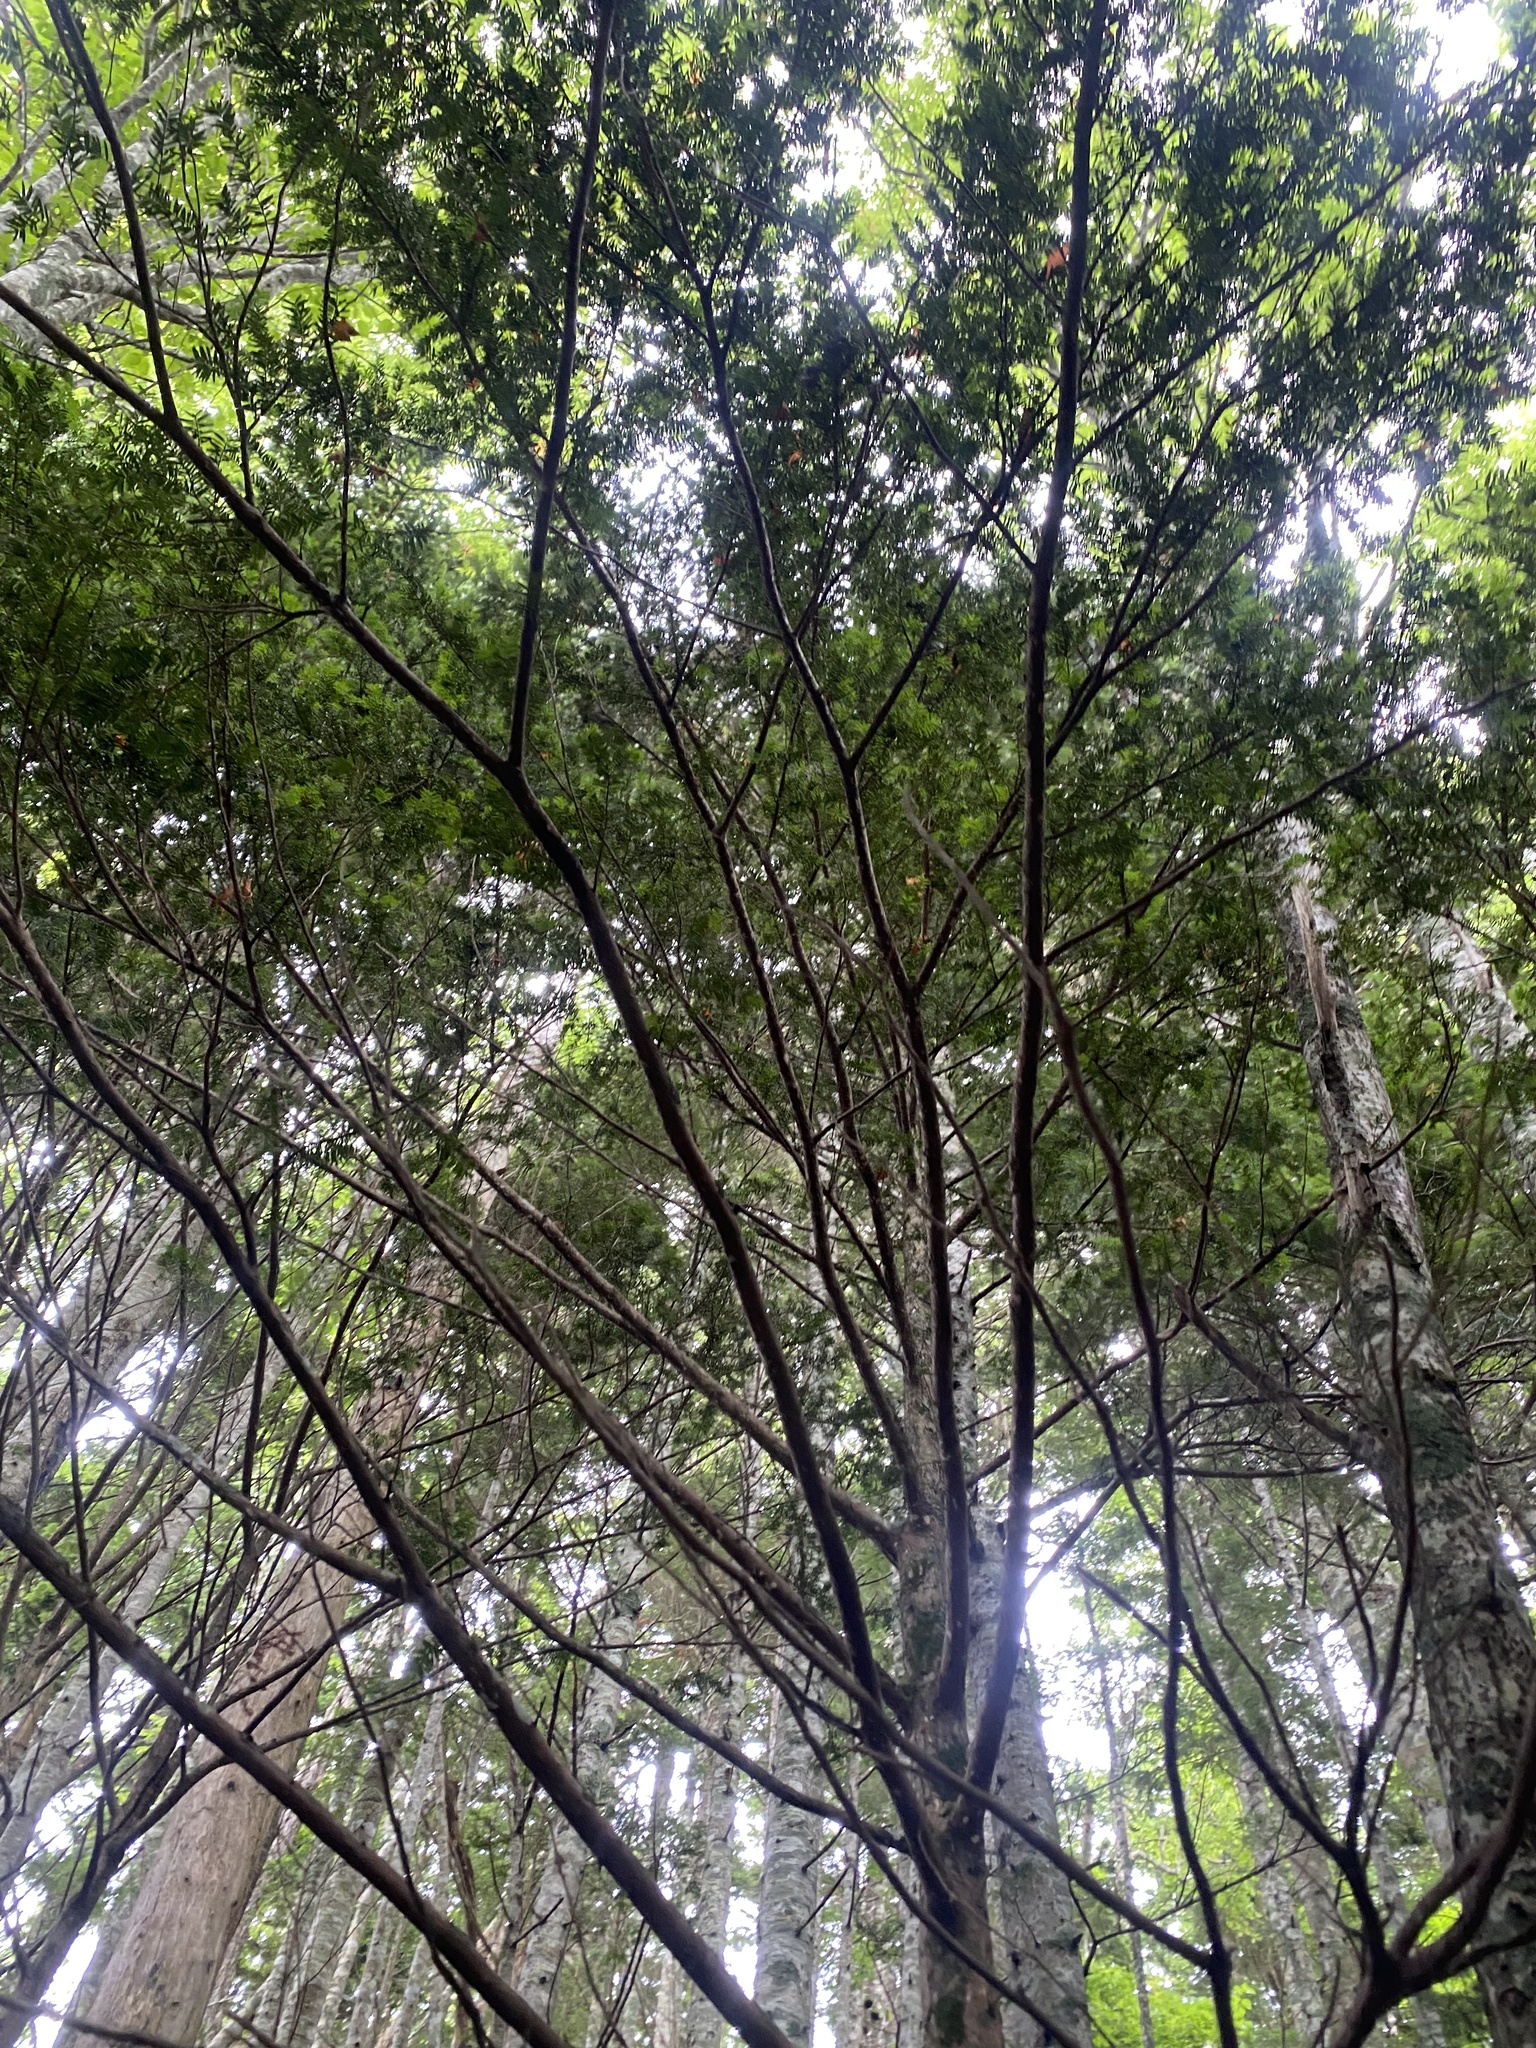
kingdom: Plantae
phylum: Tracheophyta
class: Pinopsida
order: Pinales
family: Taxaceae
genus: Taxus
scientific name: Taxus cuspidata
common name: Japanese yew
